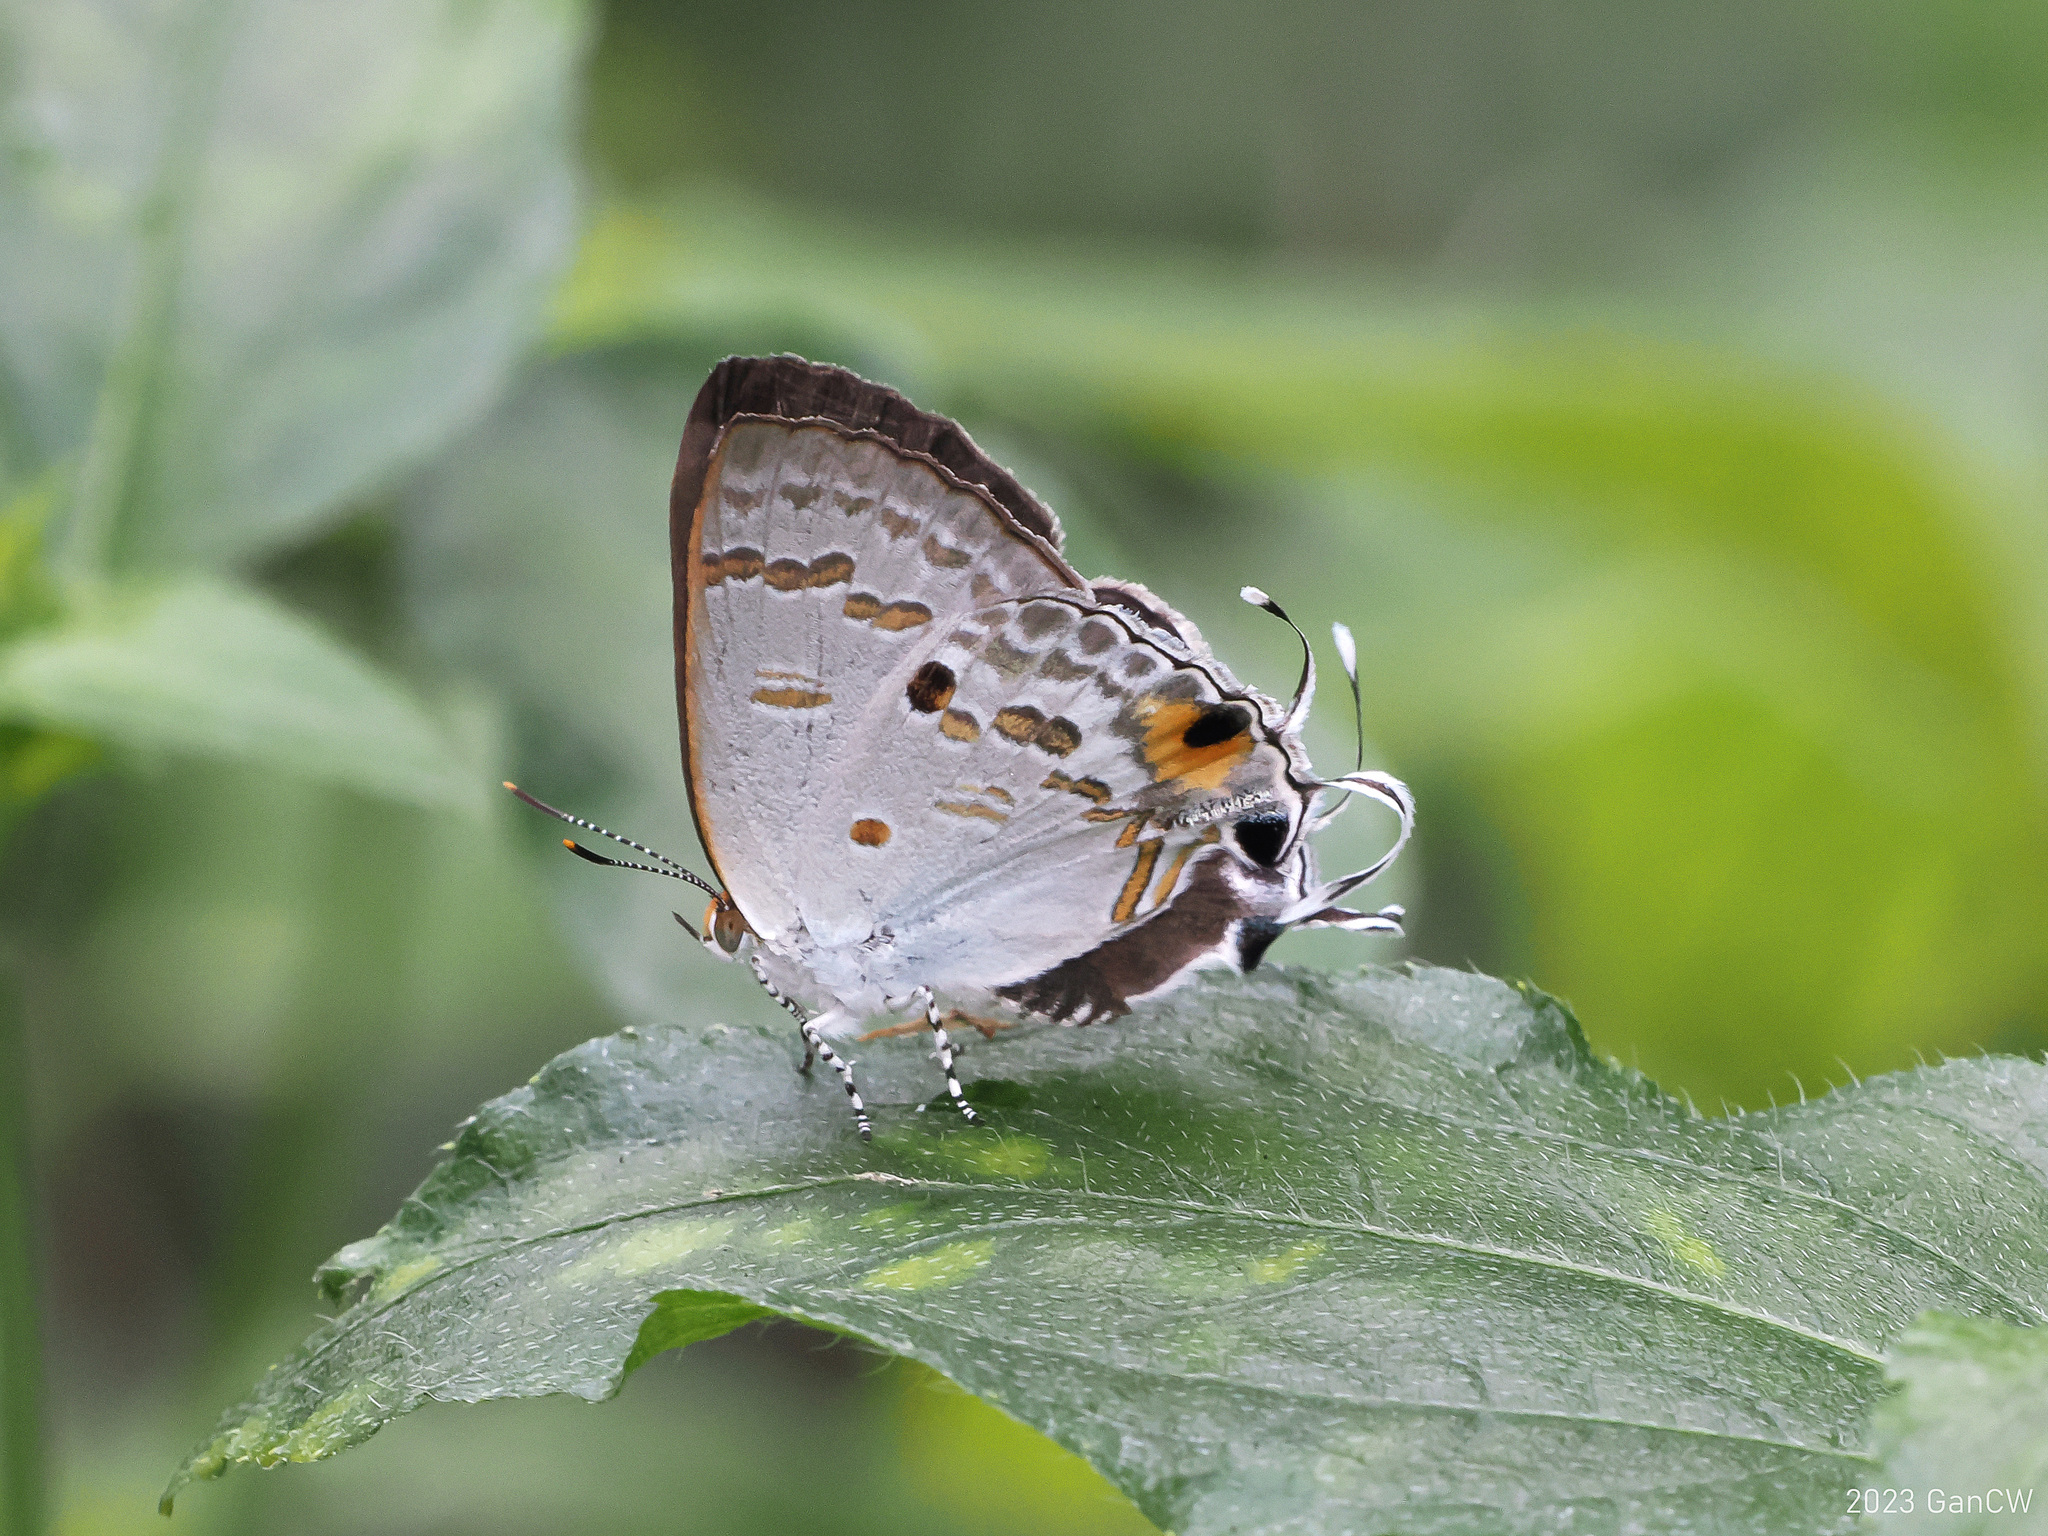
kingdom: Animalia
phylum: Arthropoda
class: Insecta
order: Lepidoptera
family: Lycaenidae
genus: Hypolycaena
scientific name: Hypolycaena sipylus
